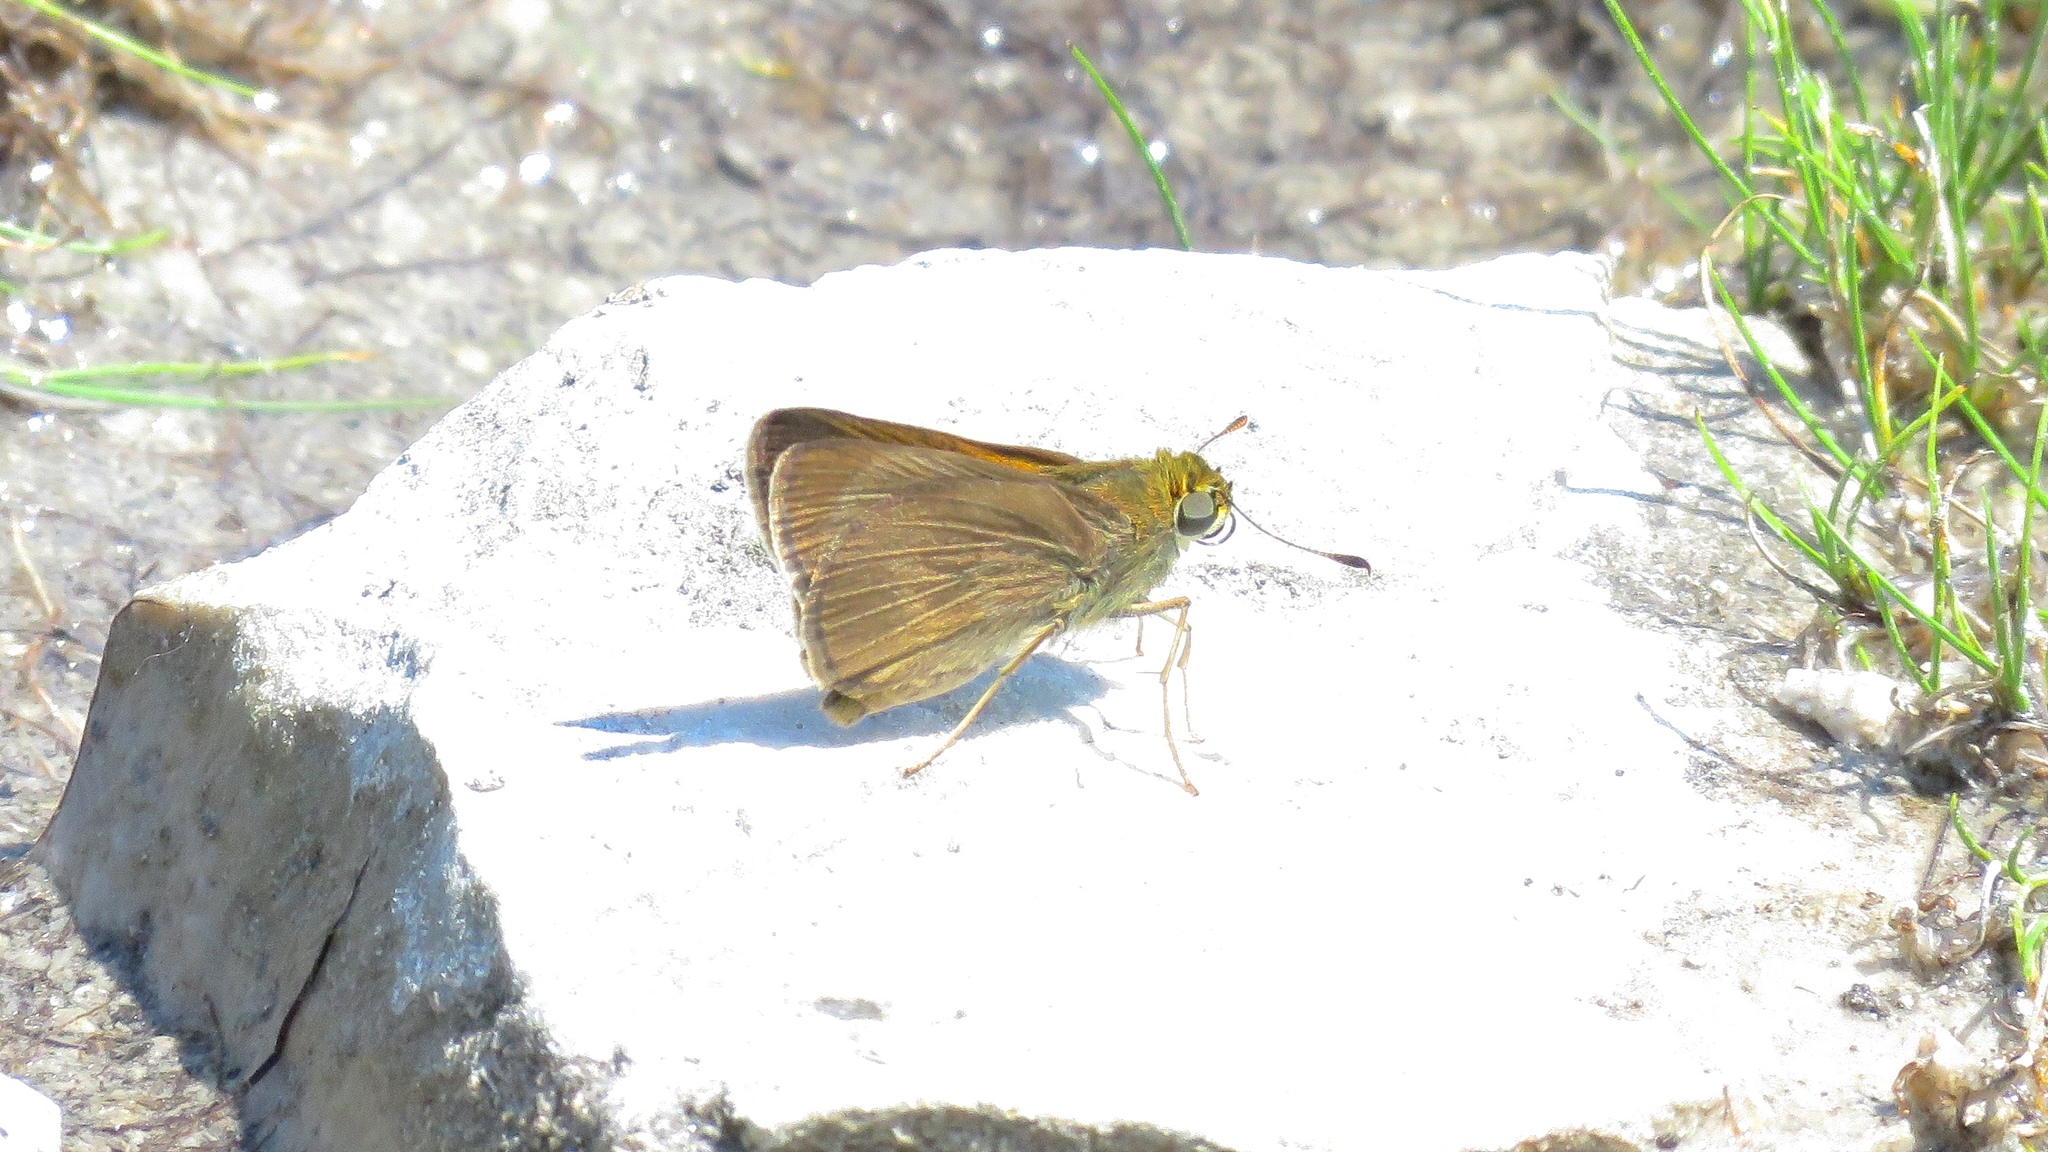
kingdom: Animalia
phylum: Arthropoda
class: Insecta
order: Lepidoptera
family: Hesperiidae
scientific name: Hesperiidae
